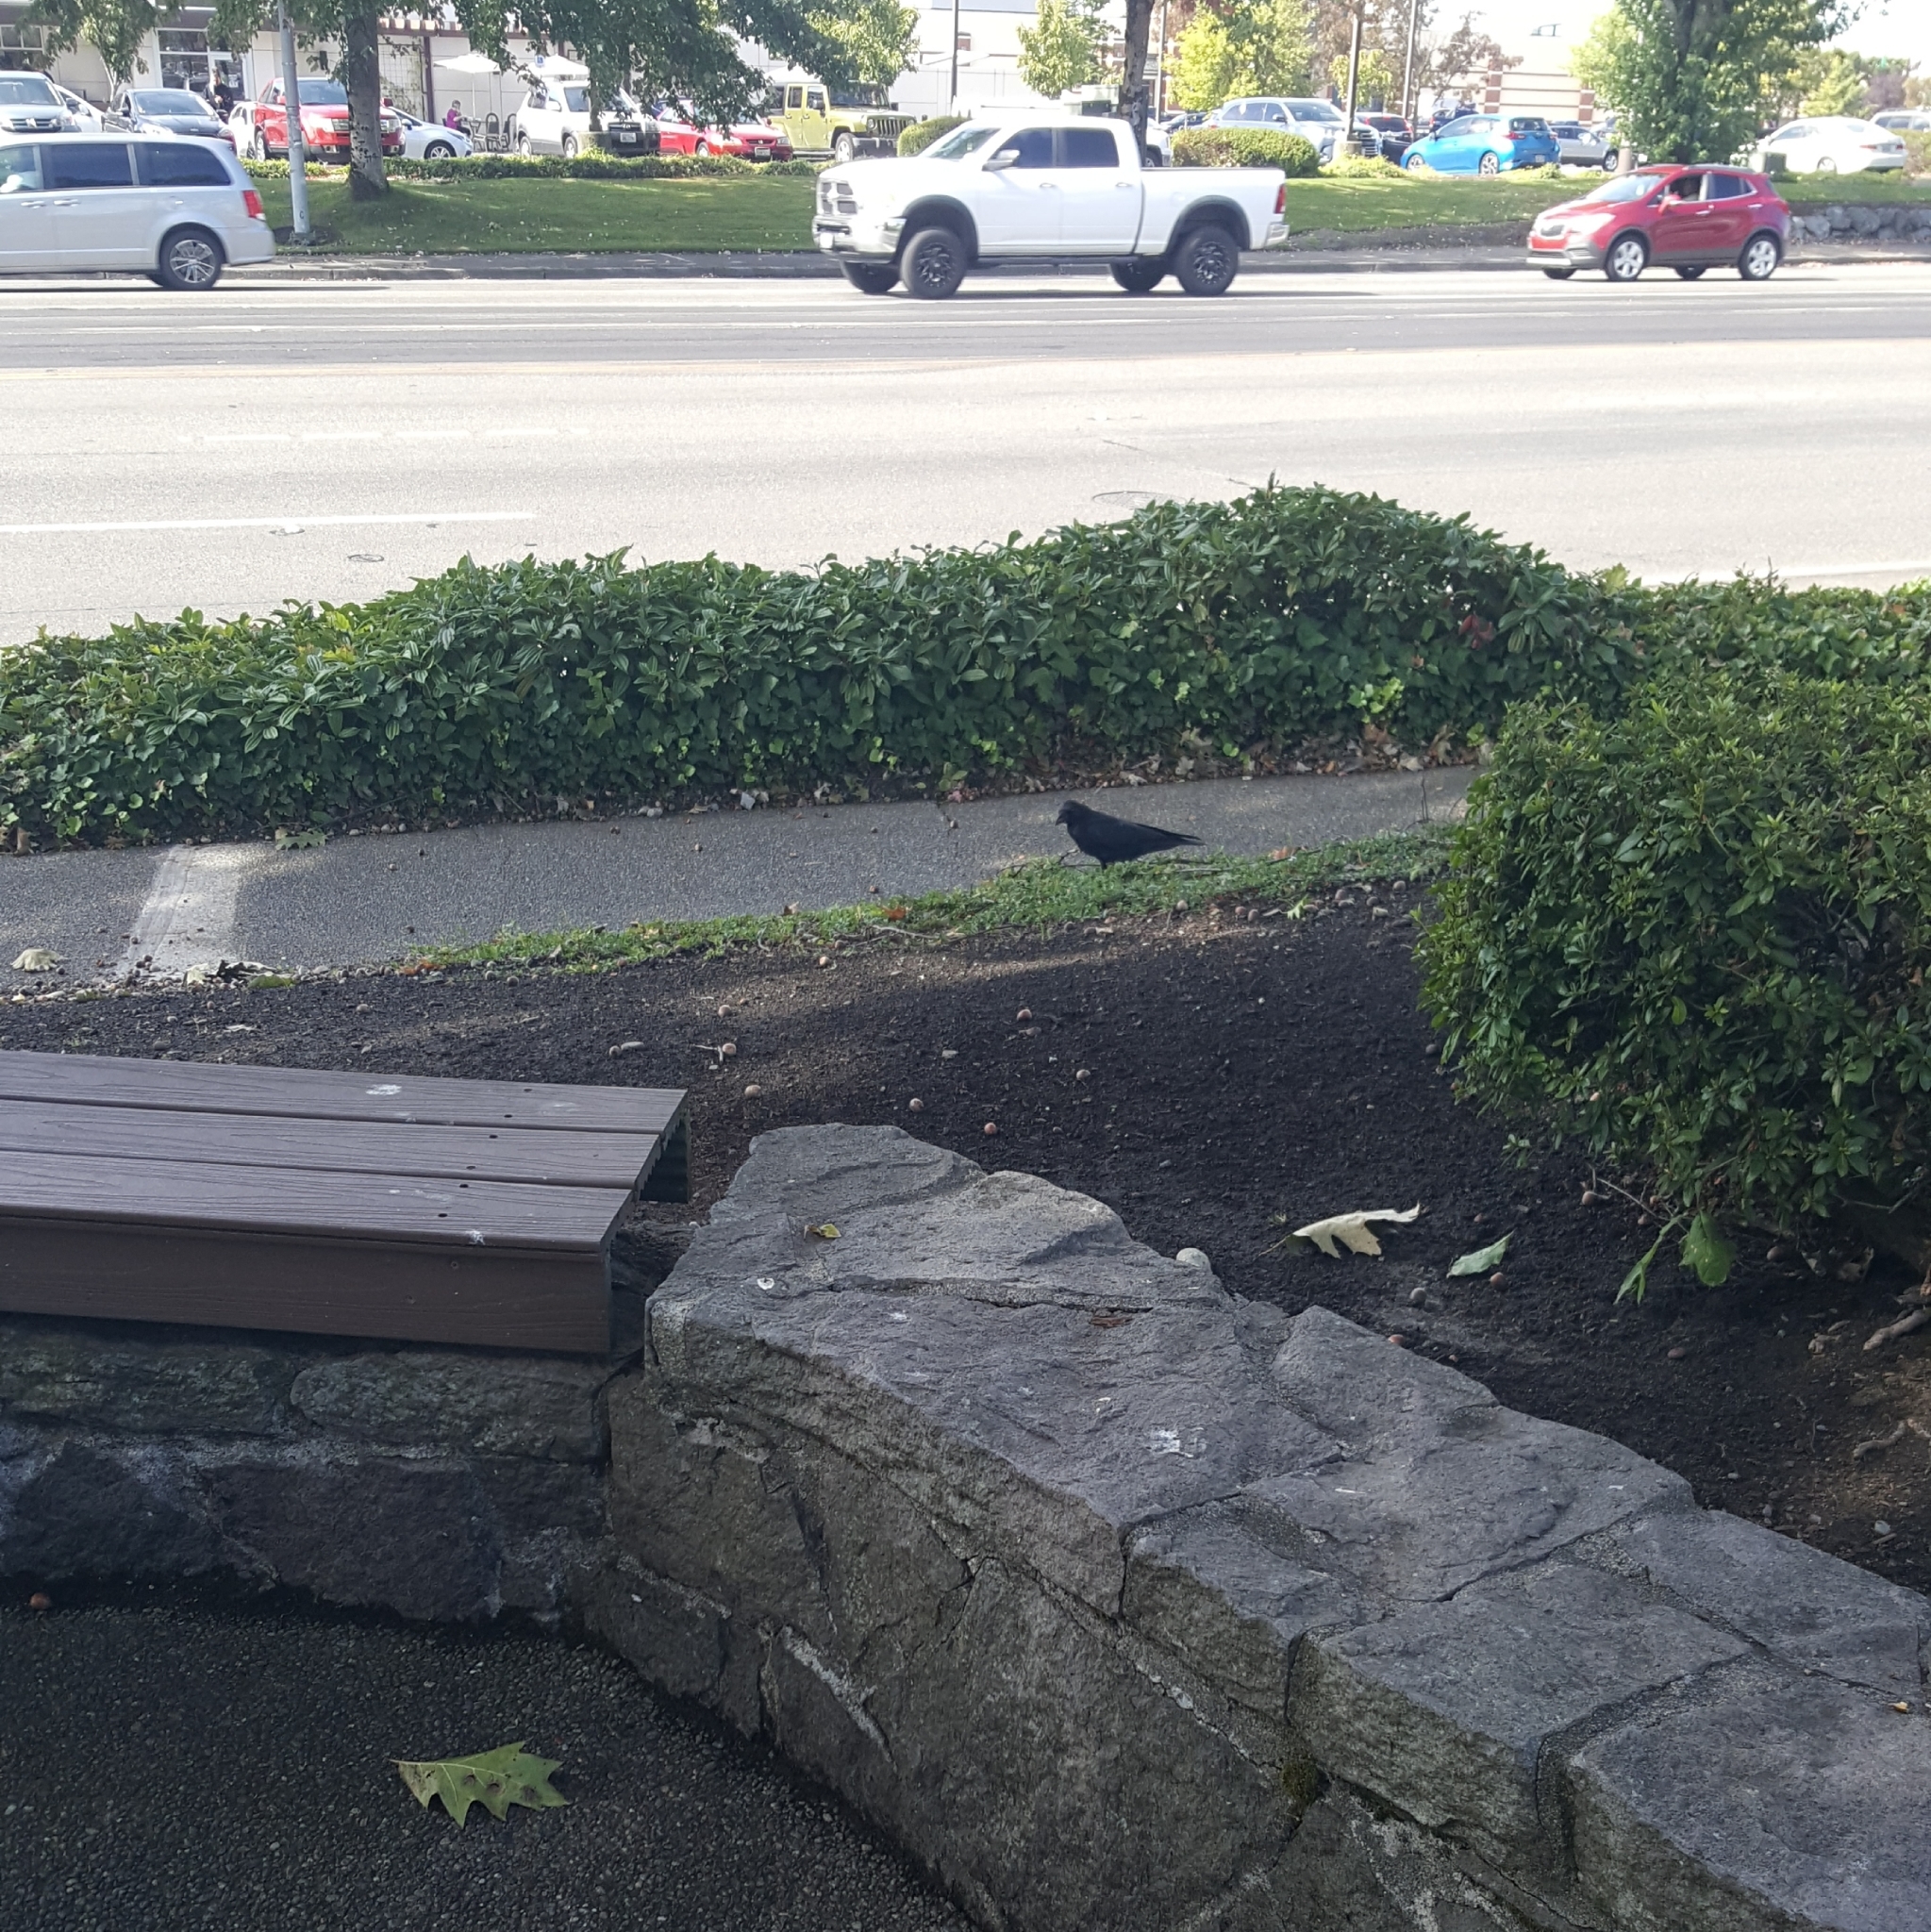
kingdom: Animalia
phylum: Chordata
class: Aves
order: Passeriformes
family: Corvidae
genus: Corvus
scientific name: Corvus brachyrhynchos
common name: American crow
